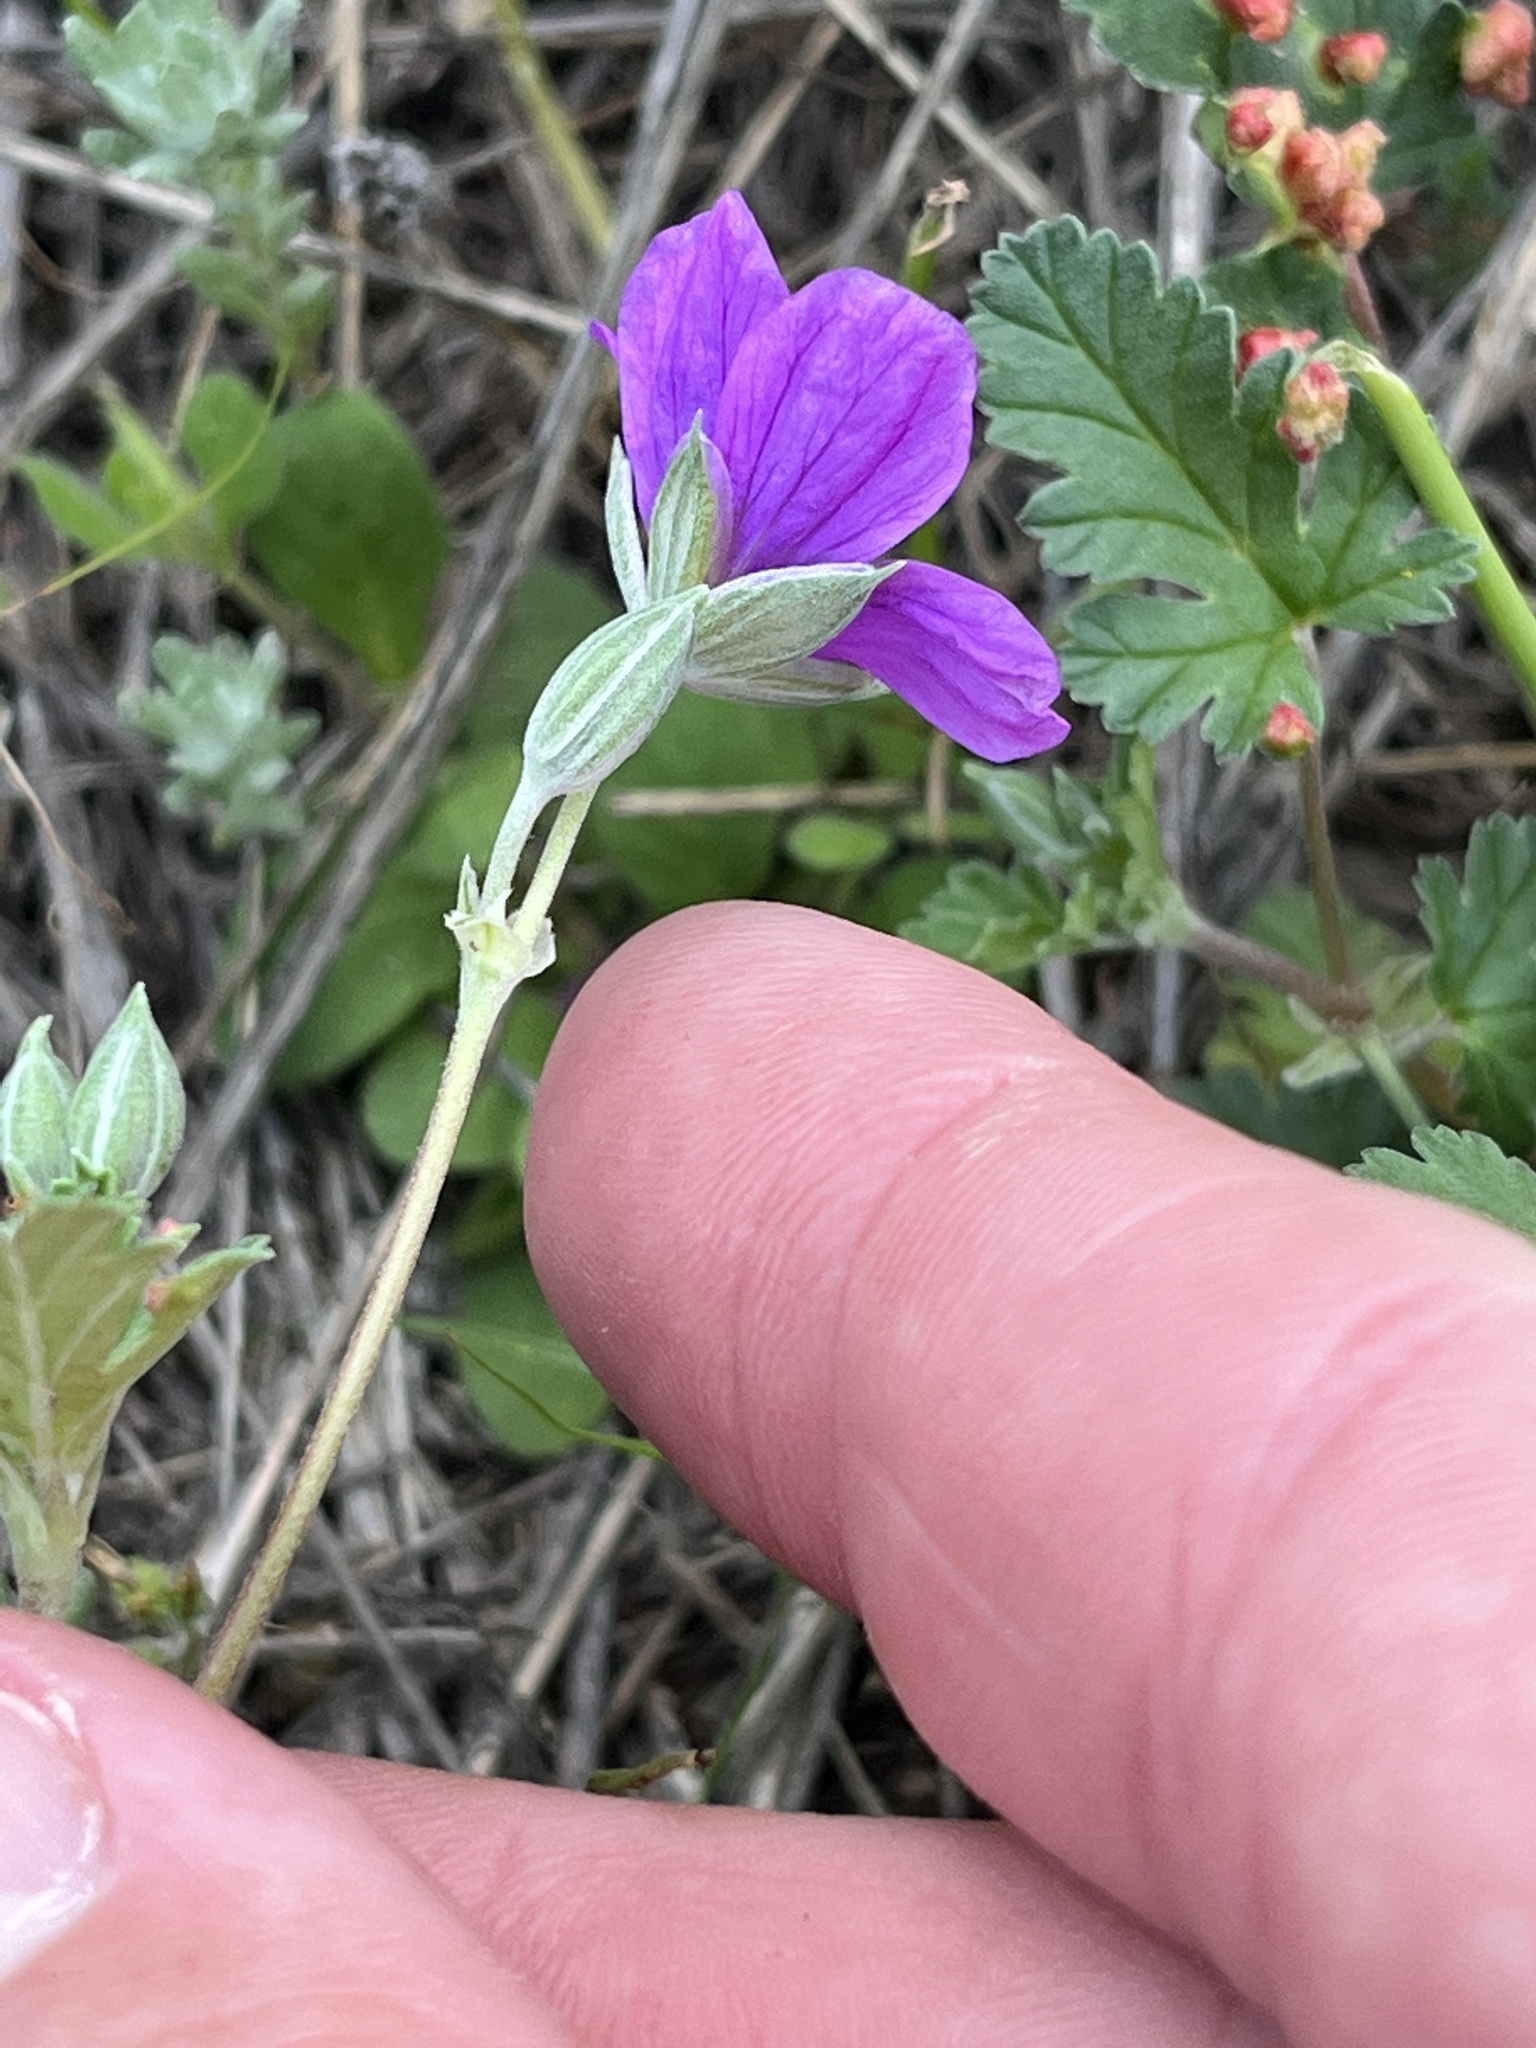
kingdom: Plantae
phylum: Tracheophyta
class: Magnoliopsida
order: Geraniales
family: Geraniaceae
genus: Erodium
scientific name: Erodium texanum
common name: Texas stork's-bill
